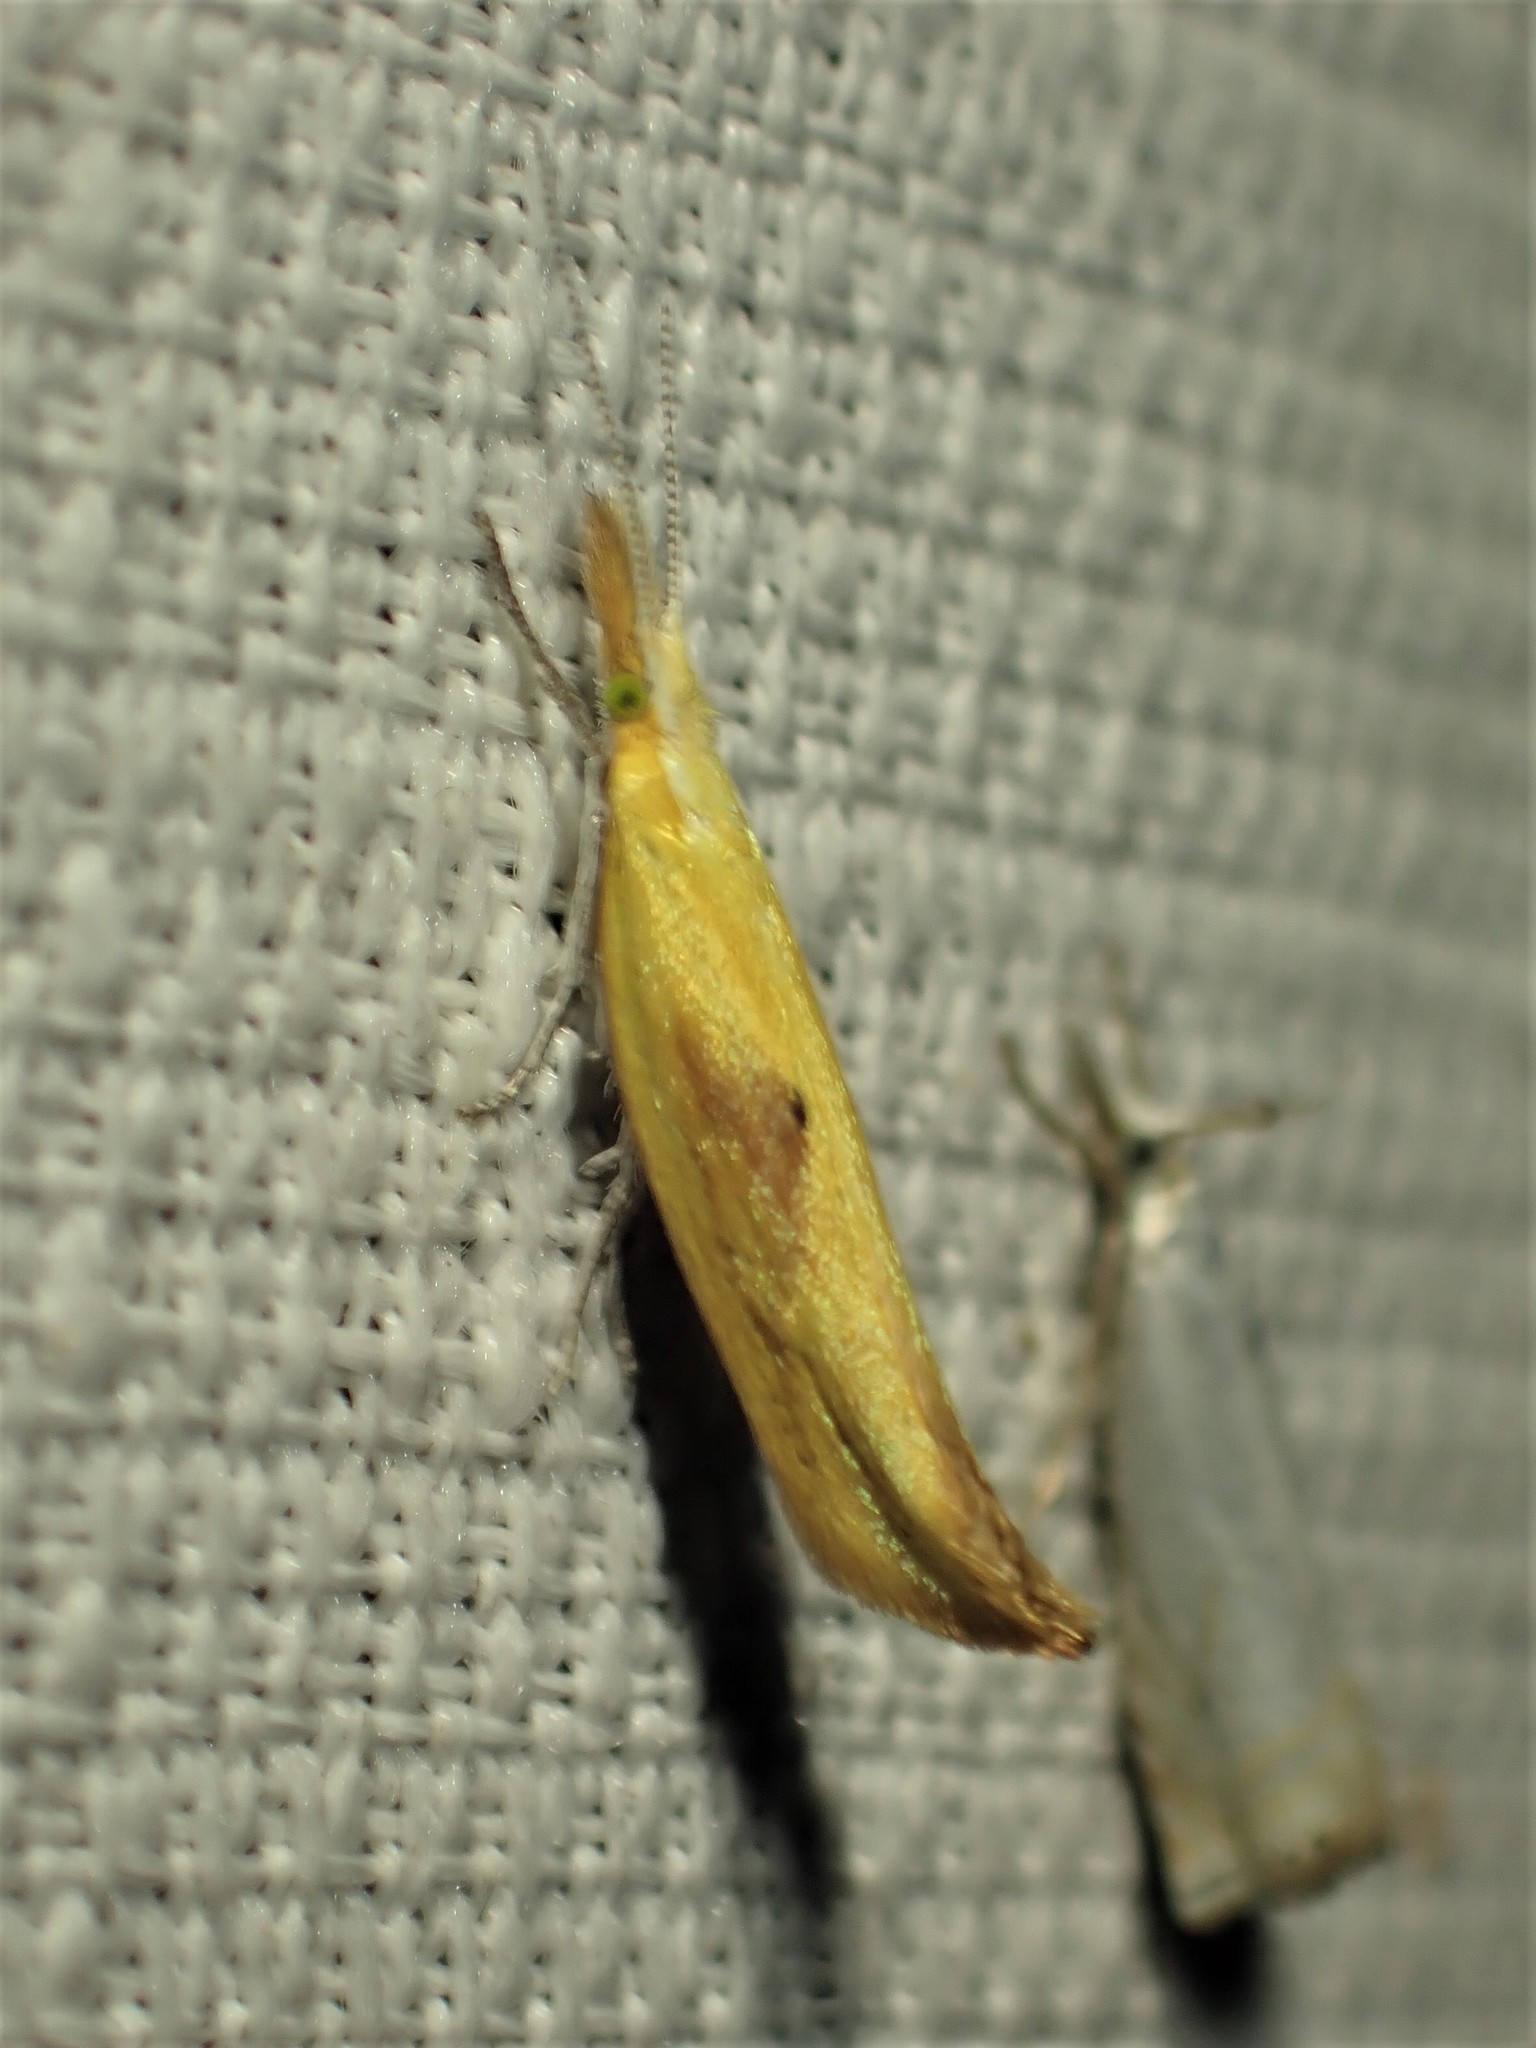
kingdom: Animalia
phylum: Arthropoda
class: Insecta
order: Lepidoptera
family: Ypsolophidae
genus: Ypsolopha
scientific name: Ypsolopha canariella
